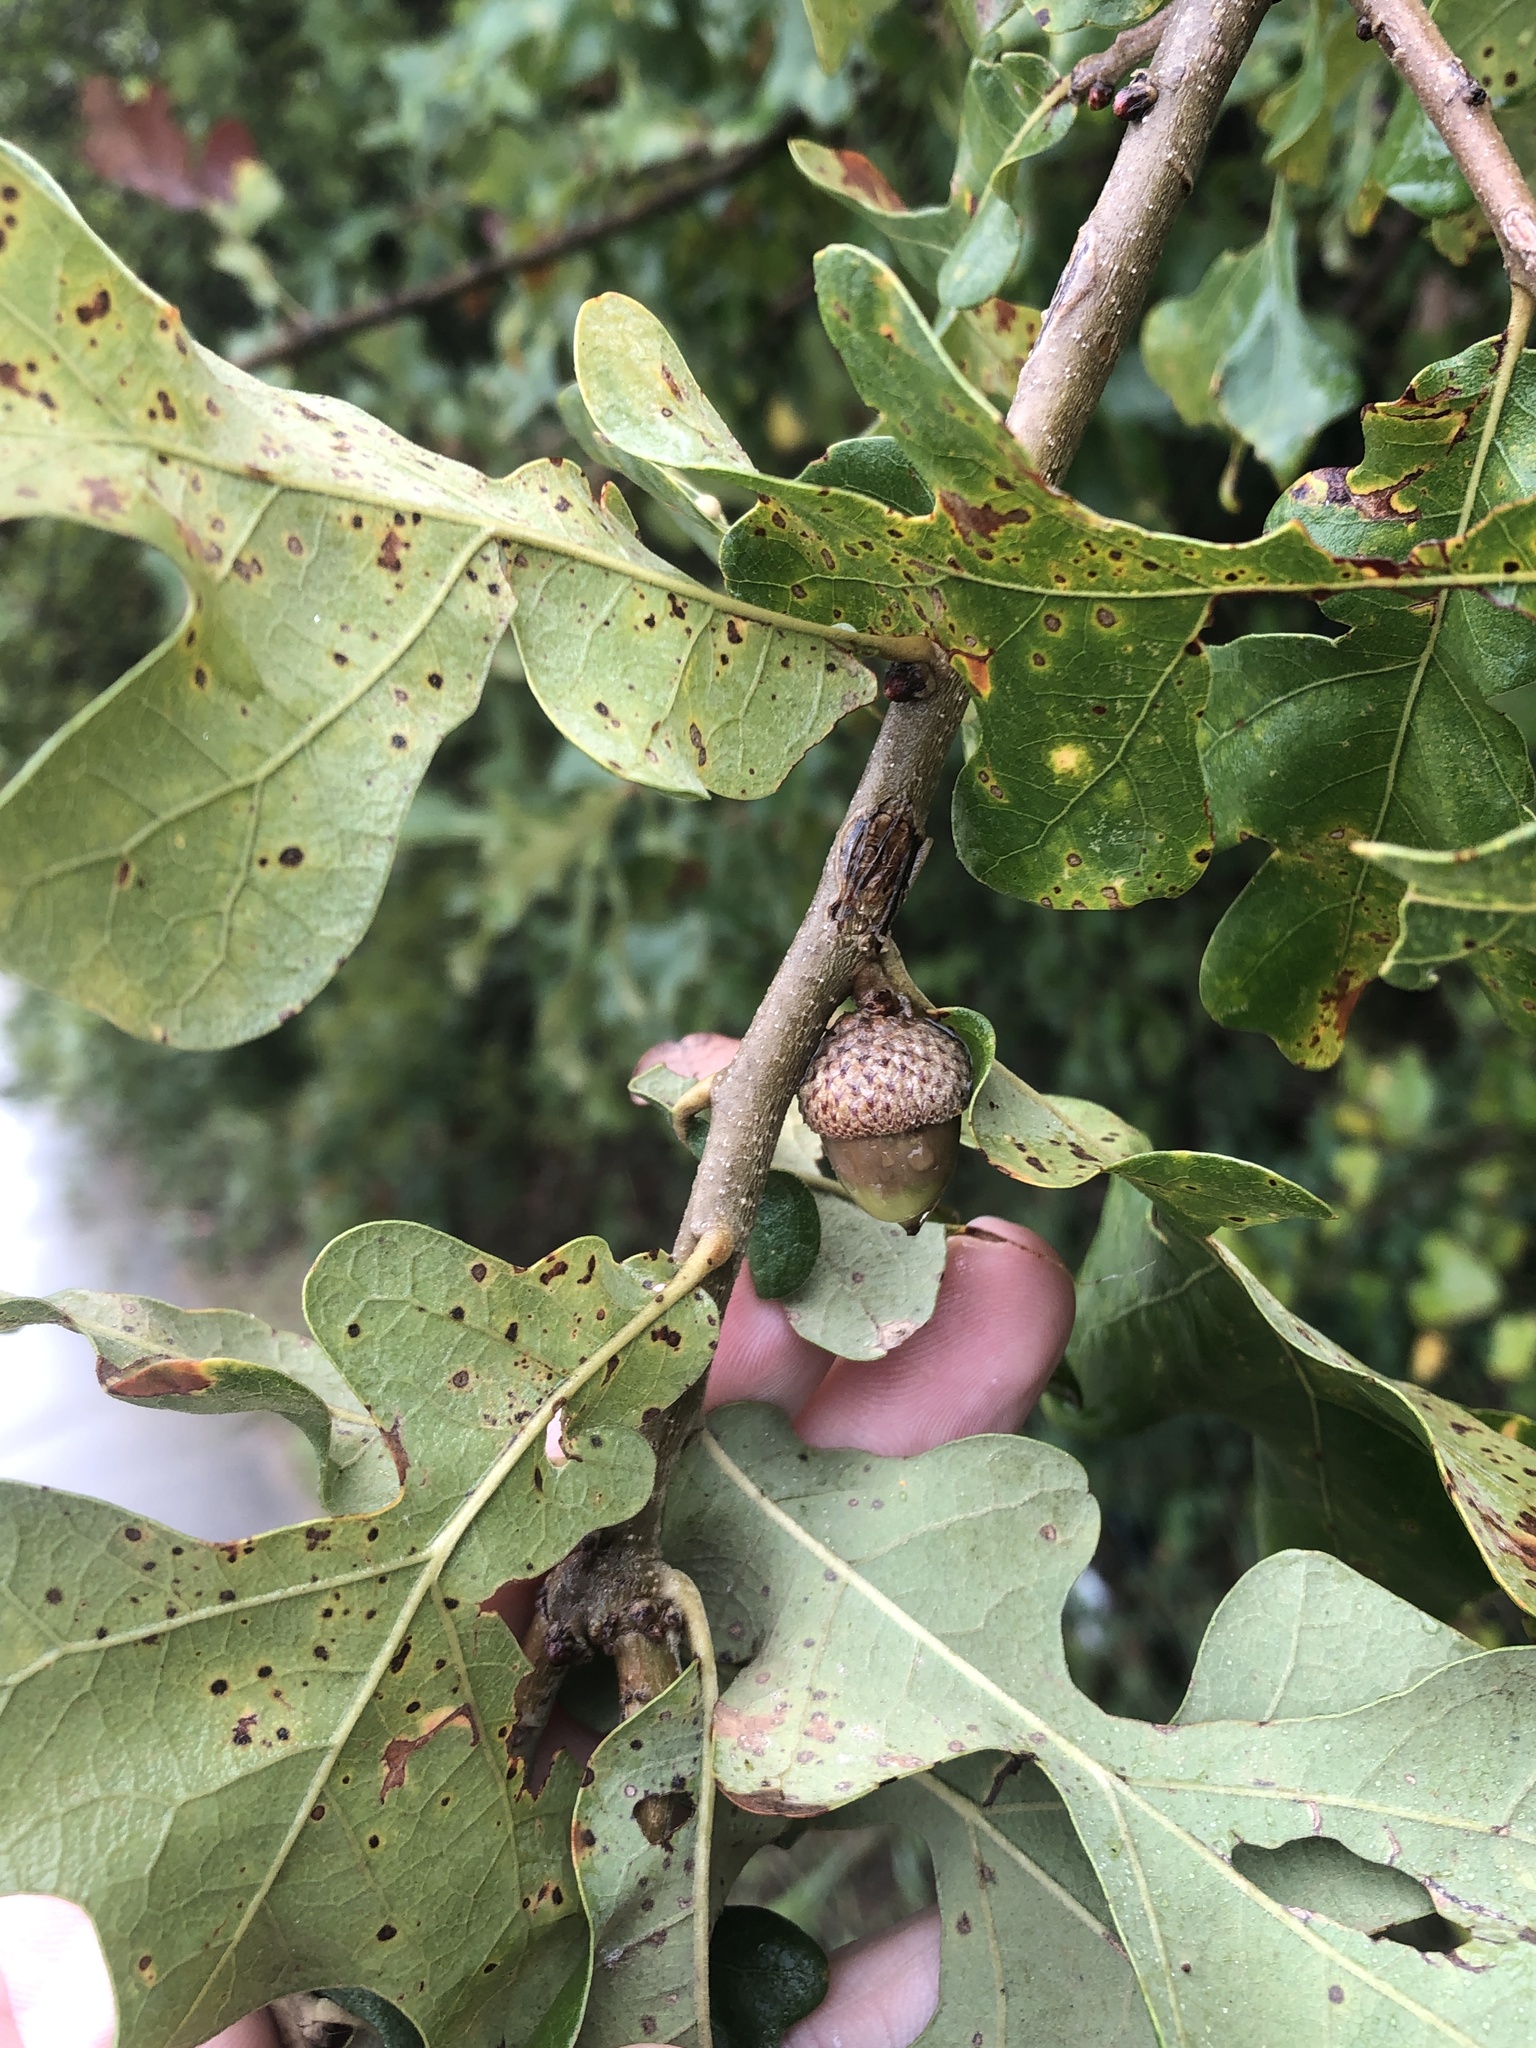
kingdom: Plantae
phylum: Tracheophyta
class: Magnoliopsida
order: Fagales
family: Fagaceae
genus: Quercus
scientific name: Quercus stellata
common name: Post oak
